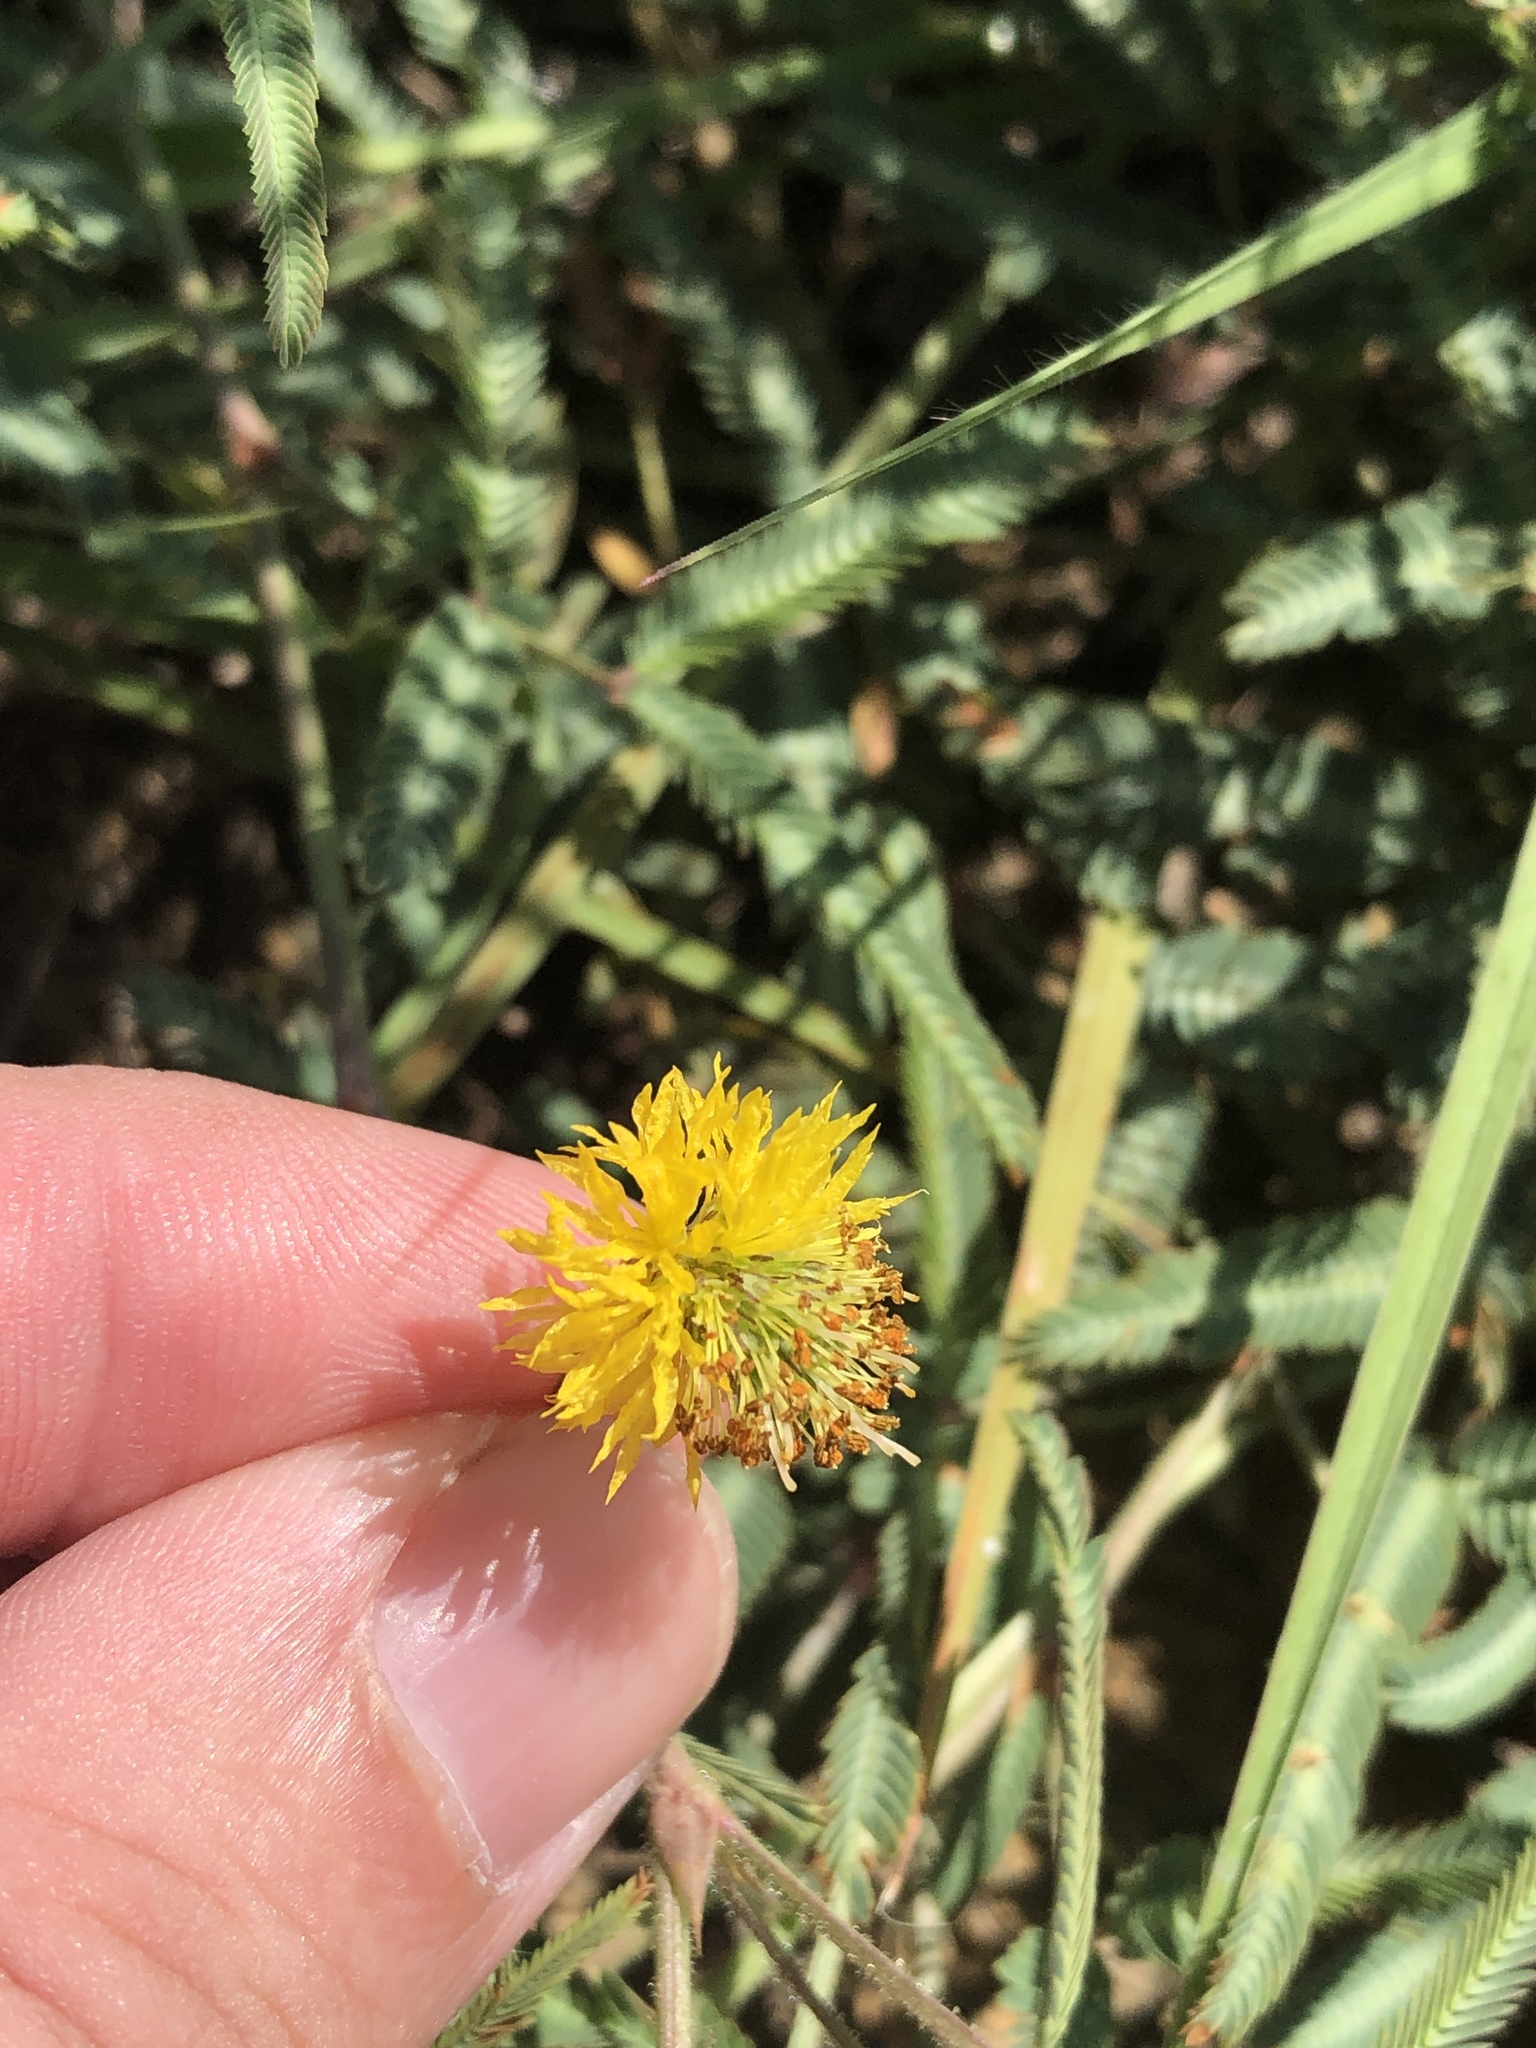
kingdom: Plantae
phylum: Tracheophyta
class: Magnoliopsida
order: Fabales
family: Fabaceae
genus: Neptunia
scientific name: Neptunia pubescens
